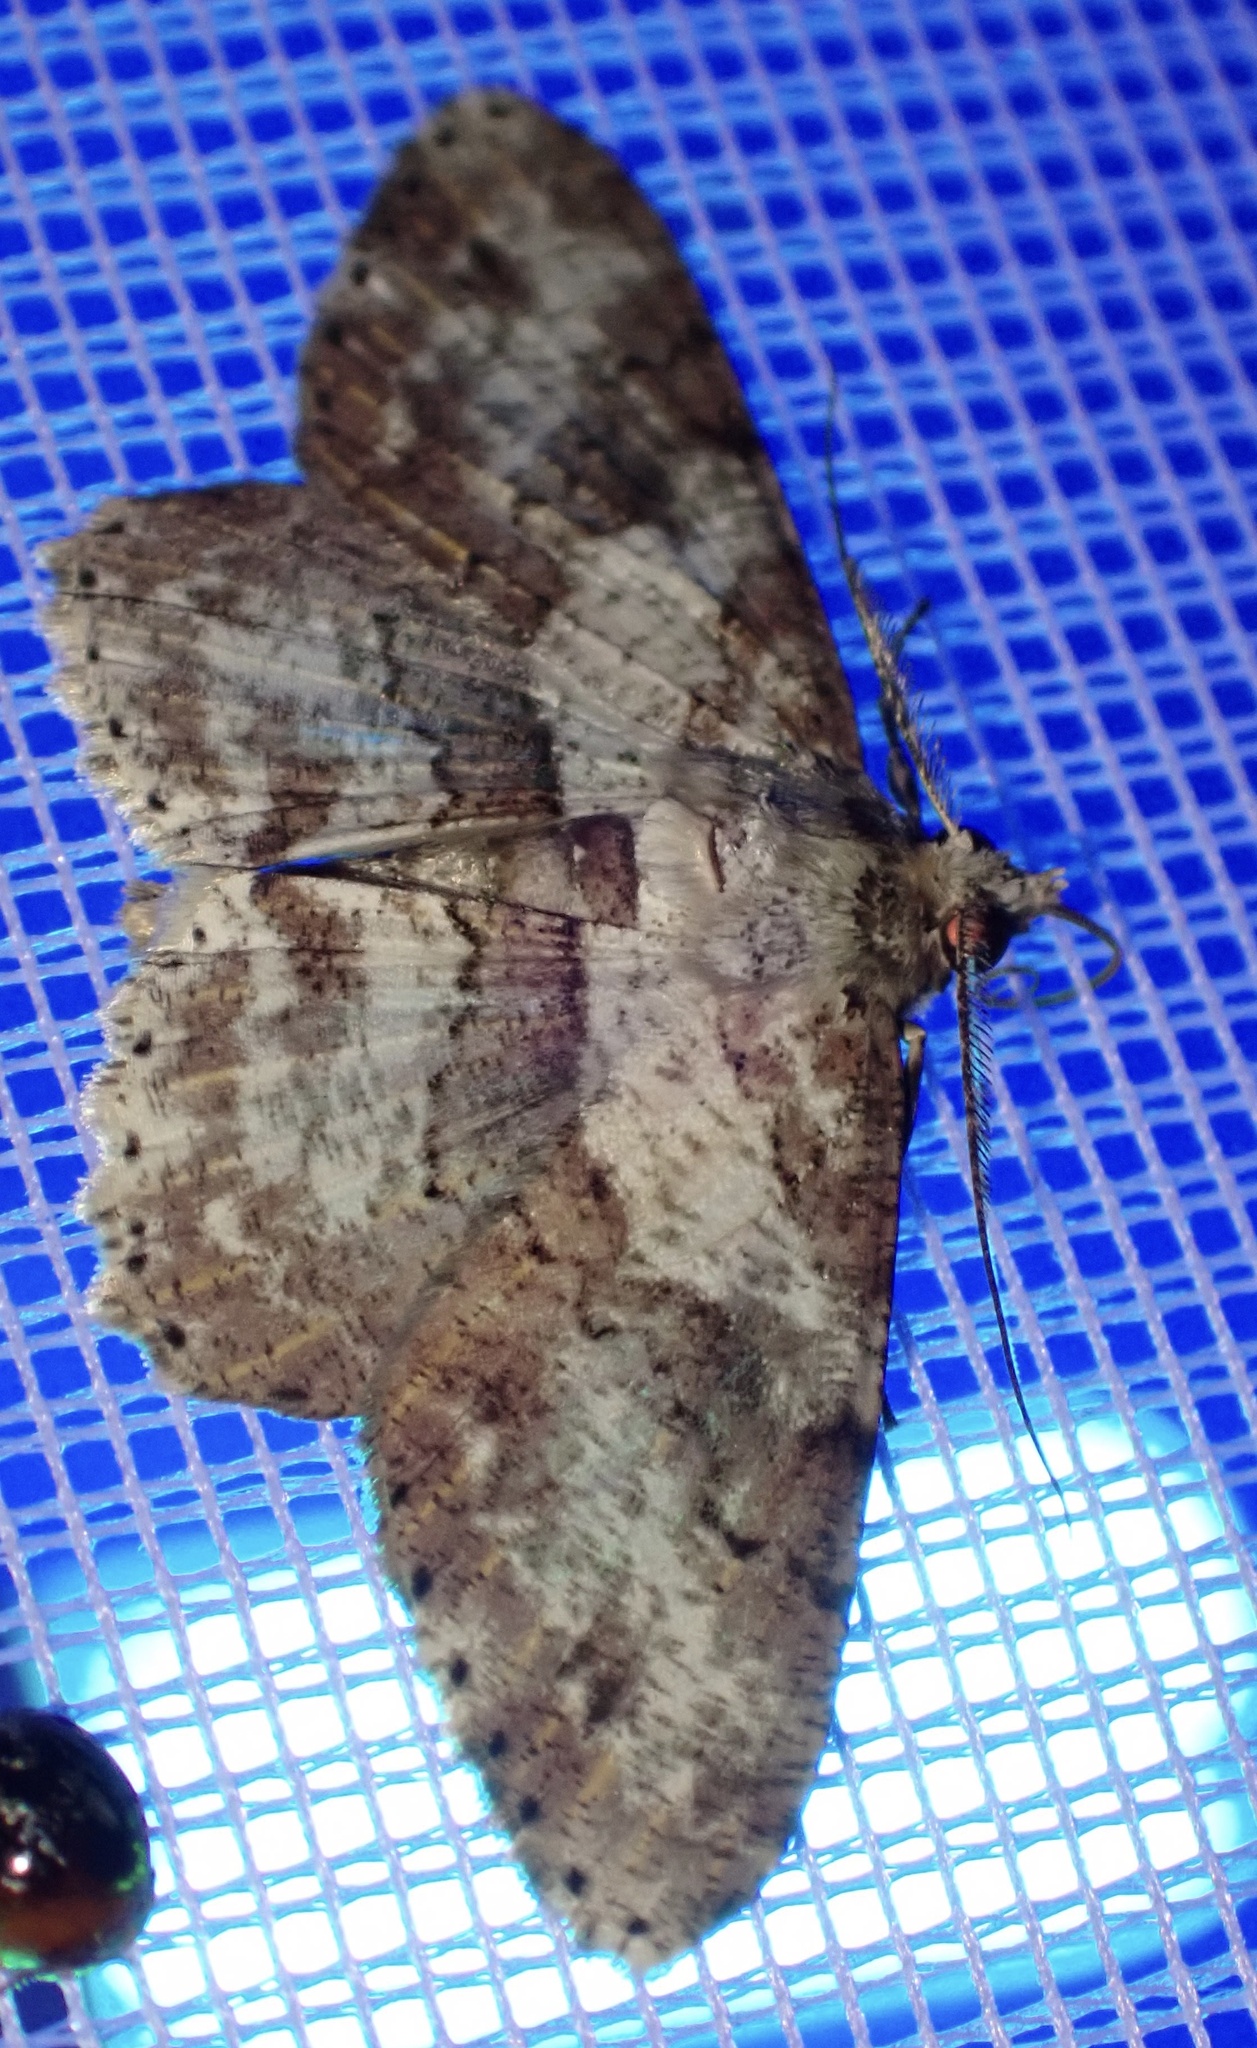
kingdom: Animalia
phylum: Arthropoda
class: Insecta
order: Lepidoptera
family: Geometridae
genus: Cleora
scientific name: Cleora repetita
